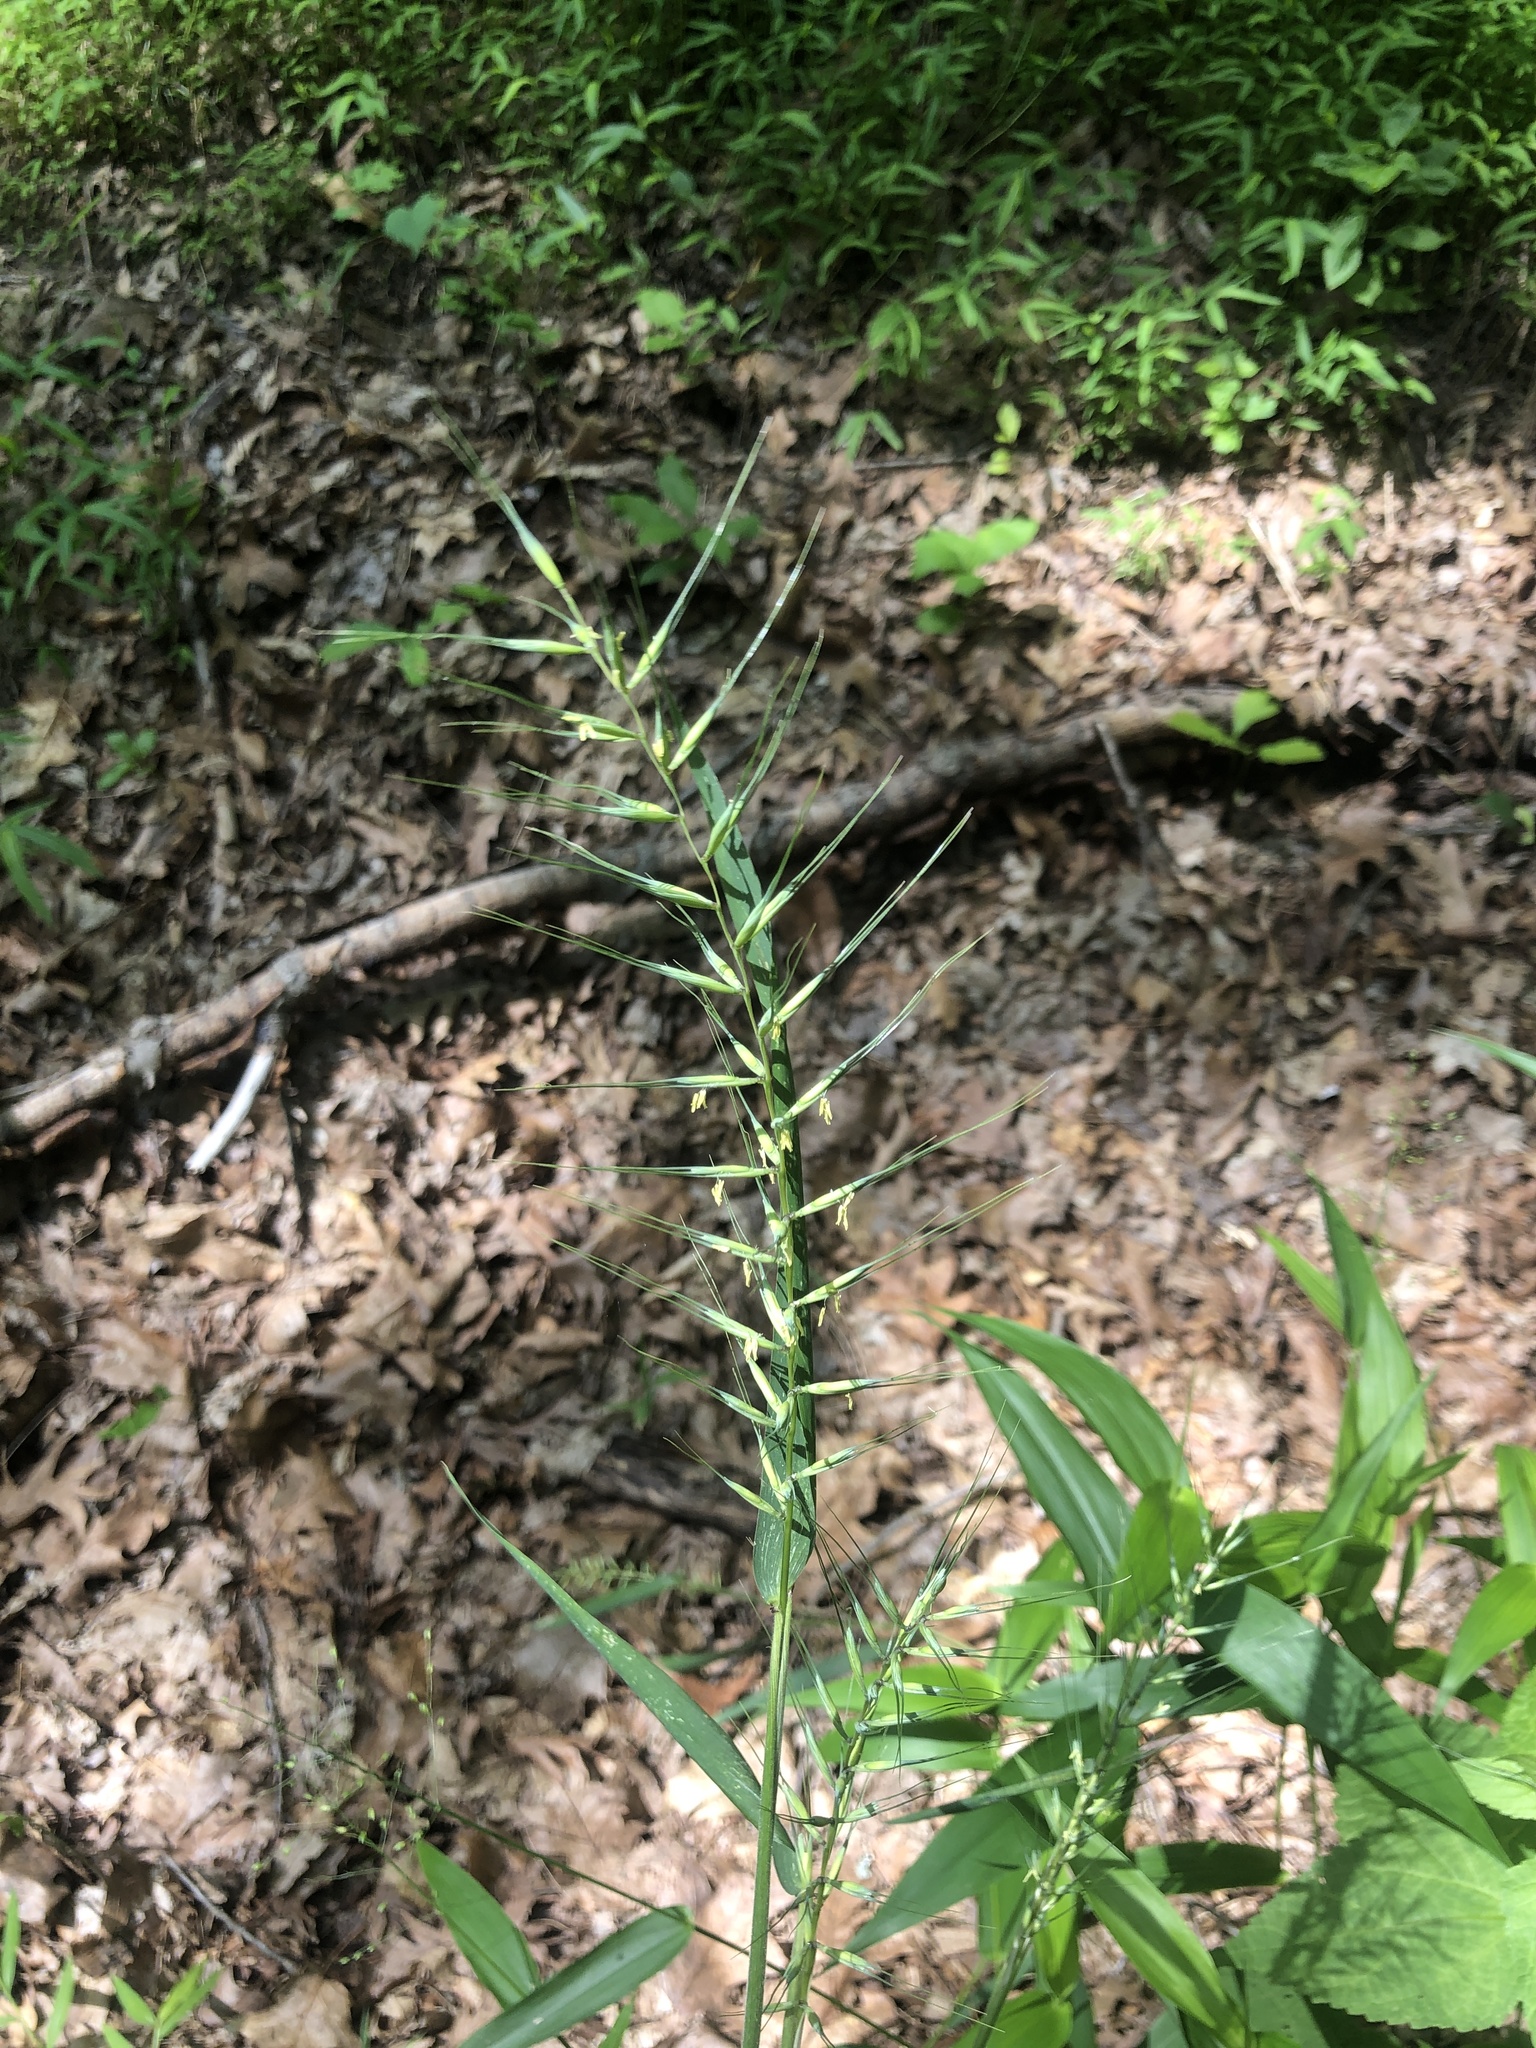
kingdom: Plantae
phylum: Tracheophyta
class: Liliopsida
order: Poales
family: Poaceae
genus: Elymus
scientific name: Elymus hystrix
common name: Bottlebrush grass
